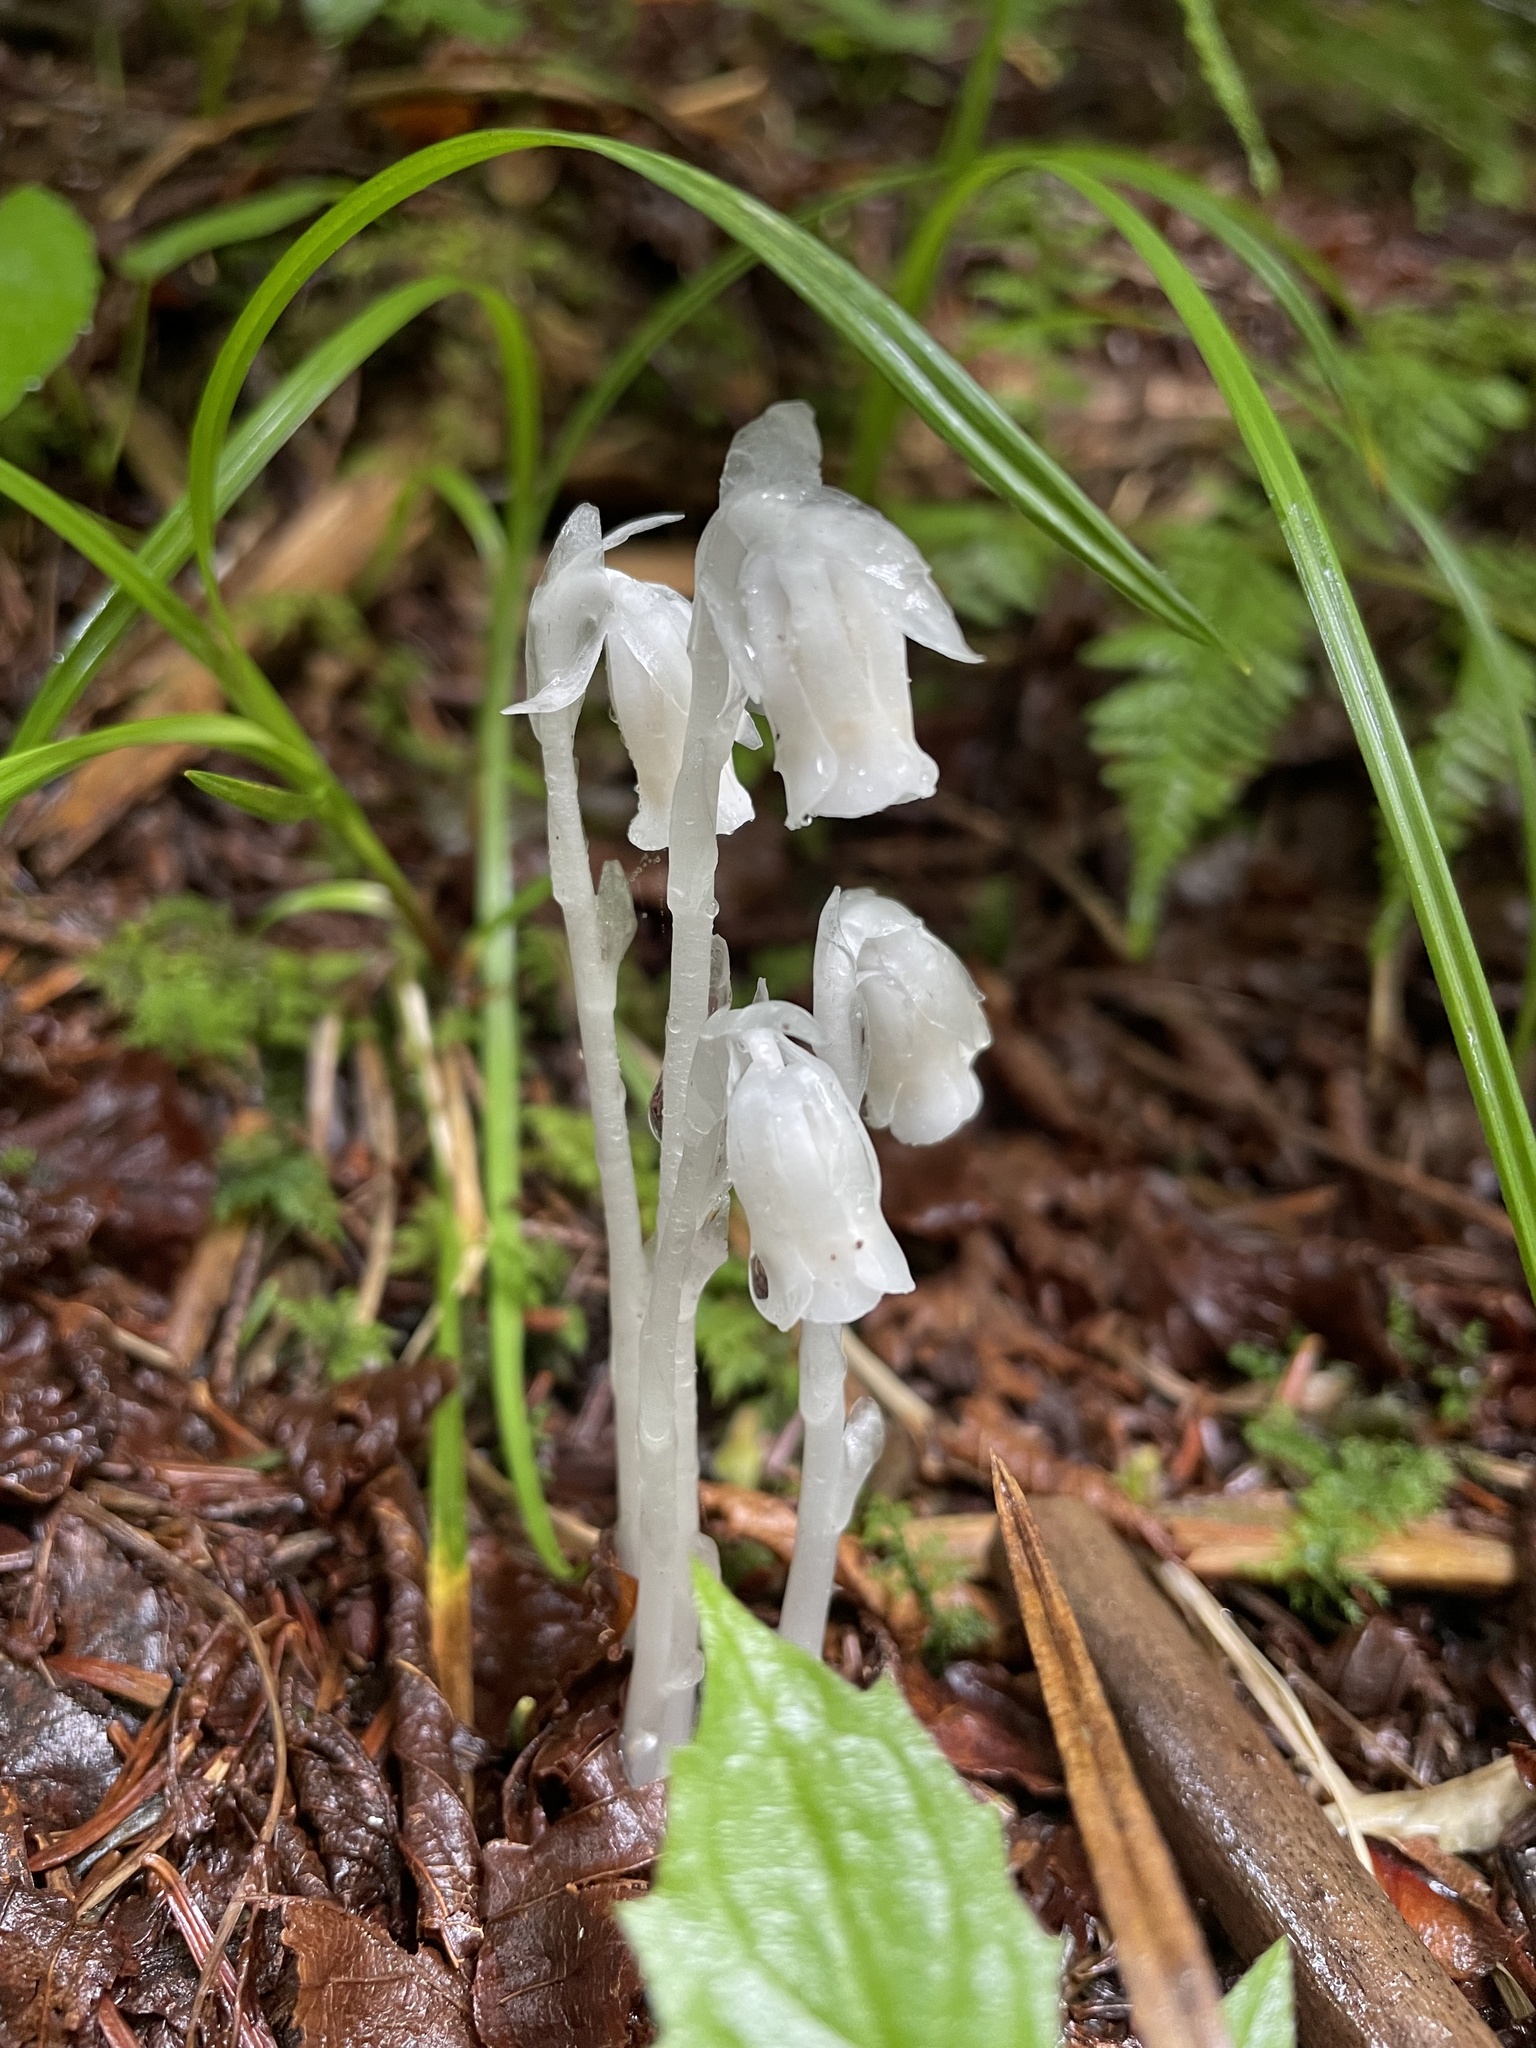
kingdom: Plantae
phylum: Tracheophyta
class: Magnoliopsida
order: Ericales
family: Ericaceae
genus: Monotropa
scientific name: Monotropa uniflora
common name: Convulsion root
